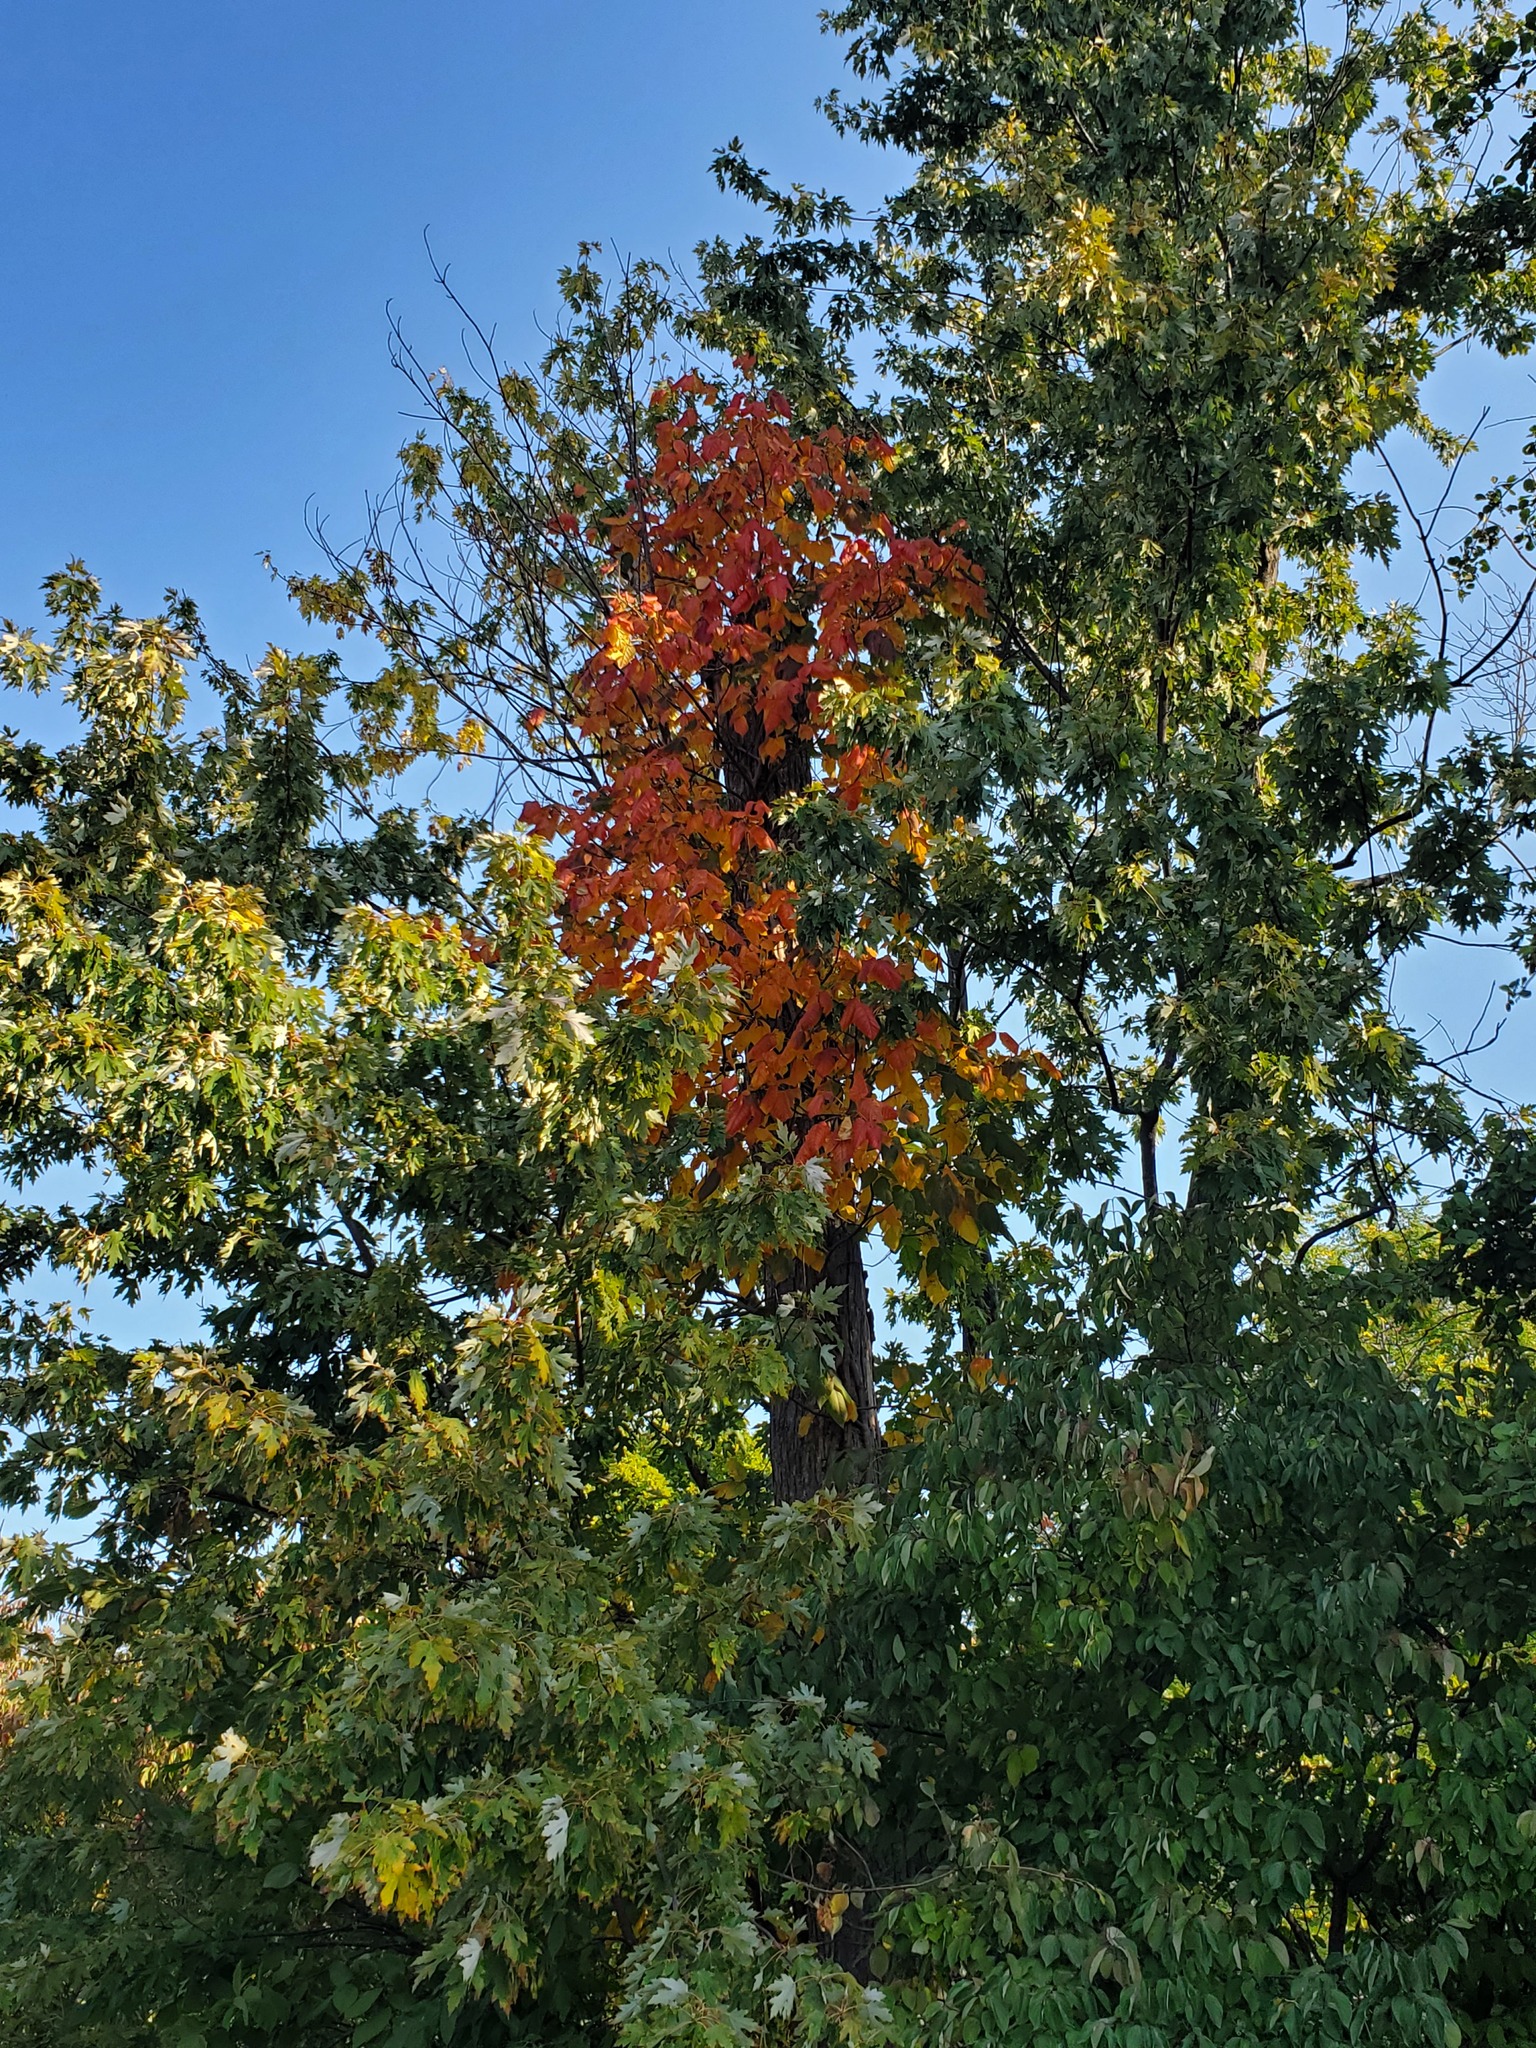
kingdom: Plantae
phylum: Tracheophyta
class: Magnoliopsida
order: Sapindales
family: Anacardiaceae
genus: Toxicodendron
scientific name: Toxicodendron radicans
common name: Poison ivy
